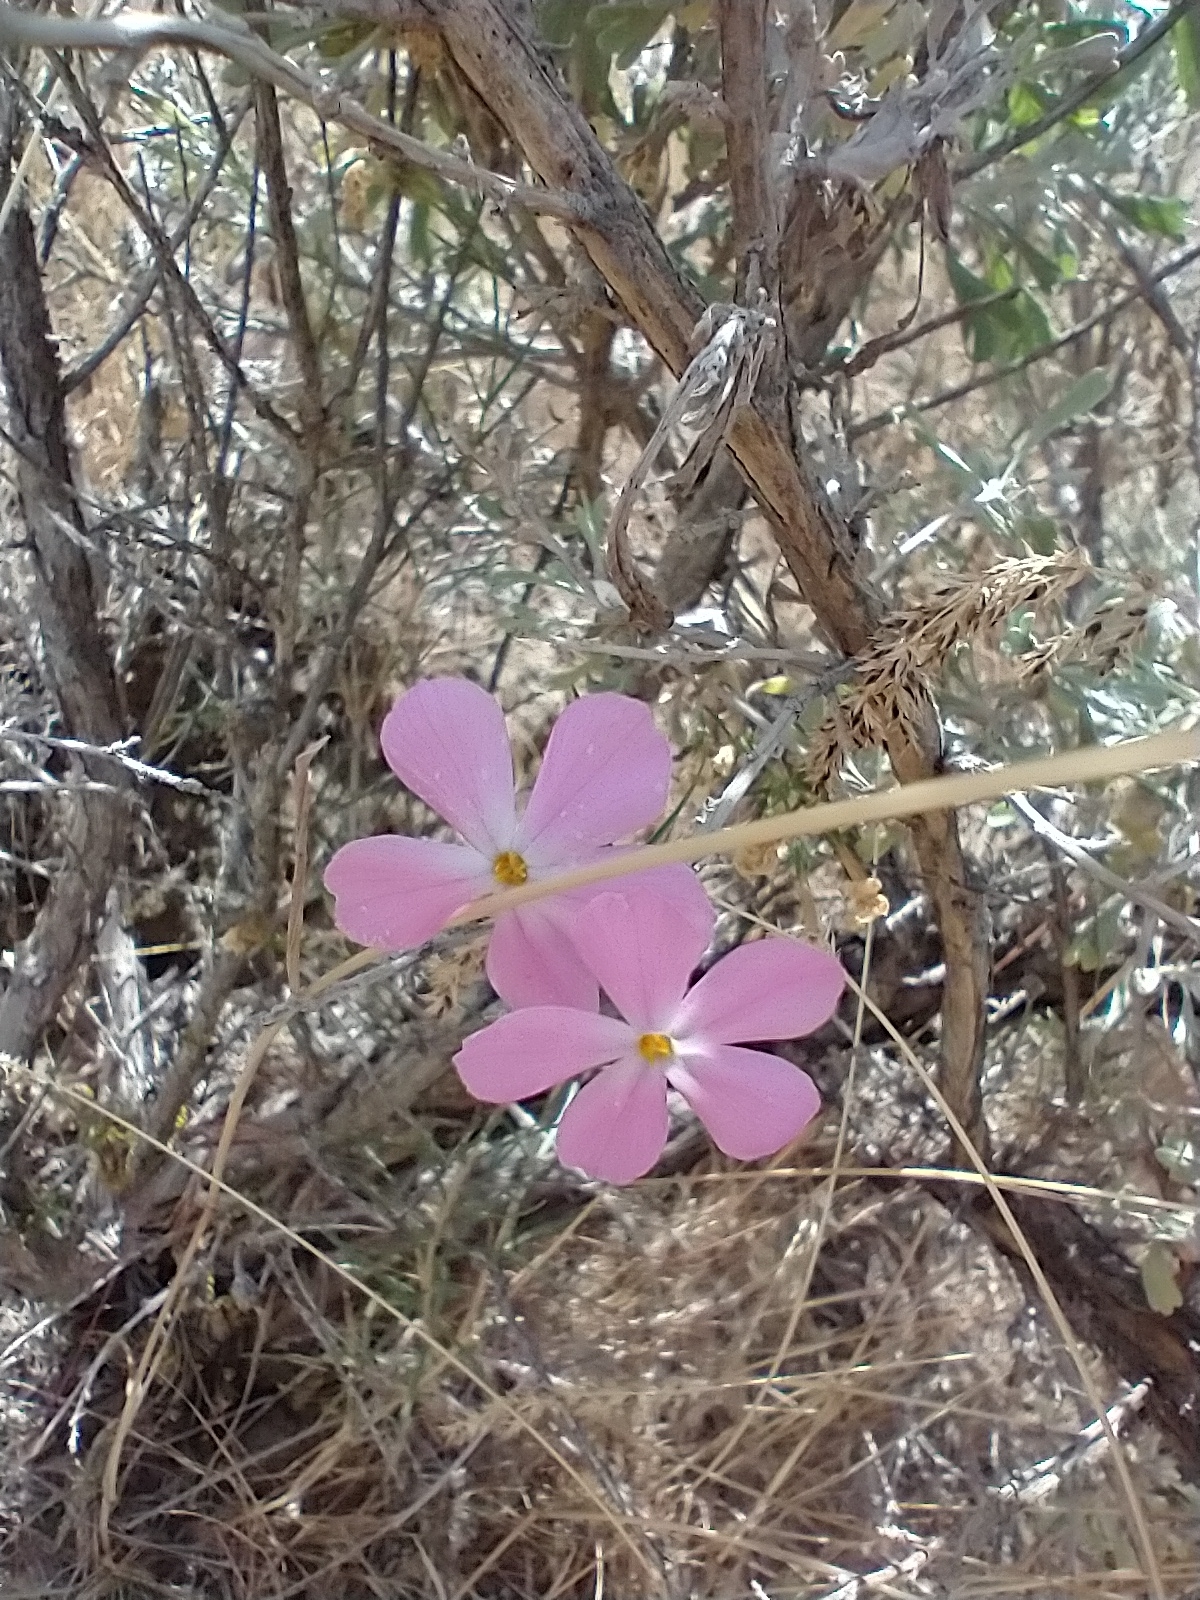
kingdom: Plantae
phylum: Tracheophyta
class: Magnoliopsida
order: Ericales
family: Polemoniaceae
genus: Phlox
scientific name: Phlox longifolia
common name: Longleaf phlox
